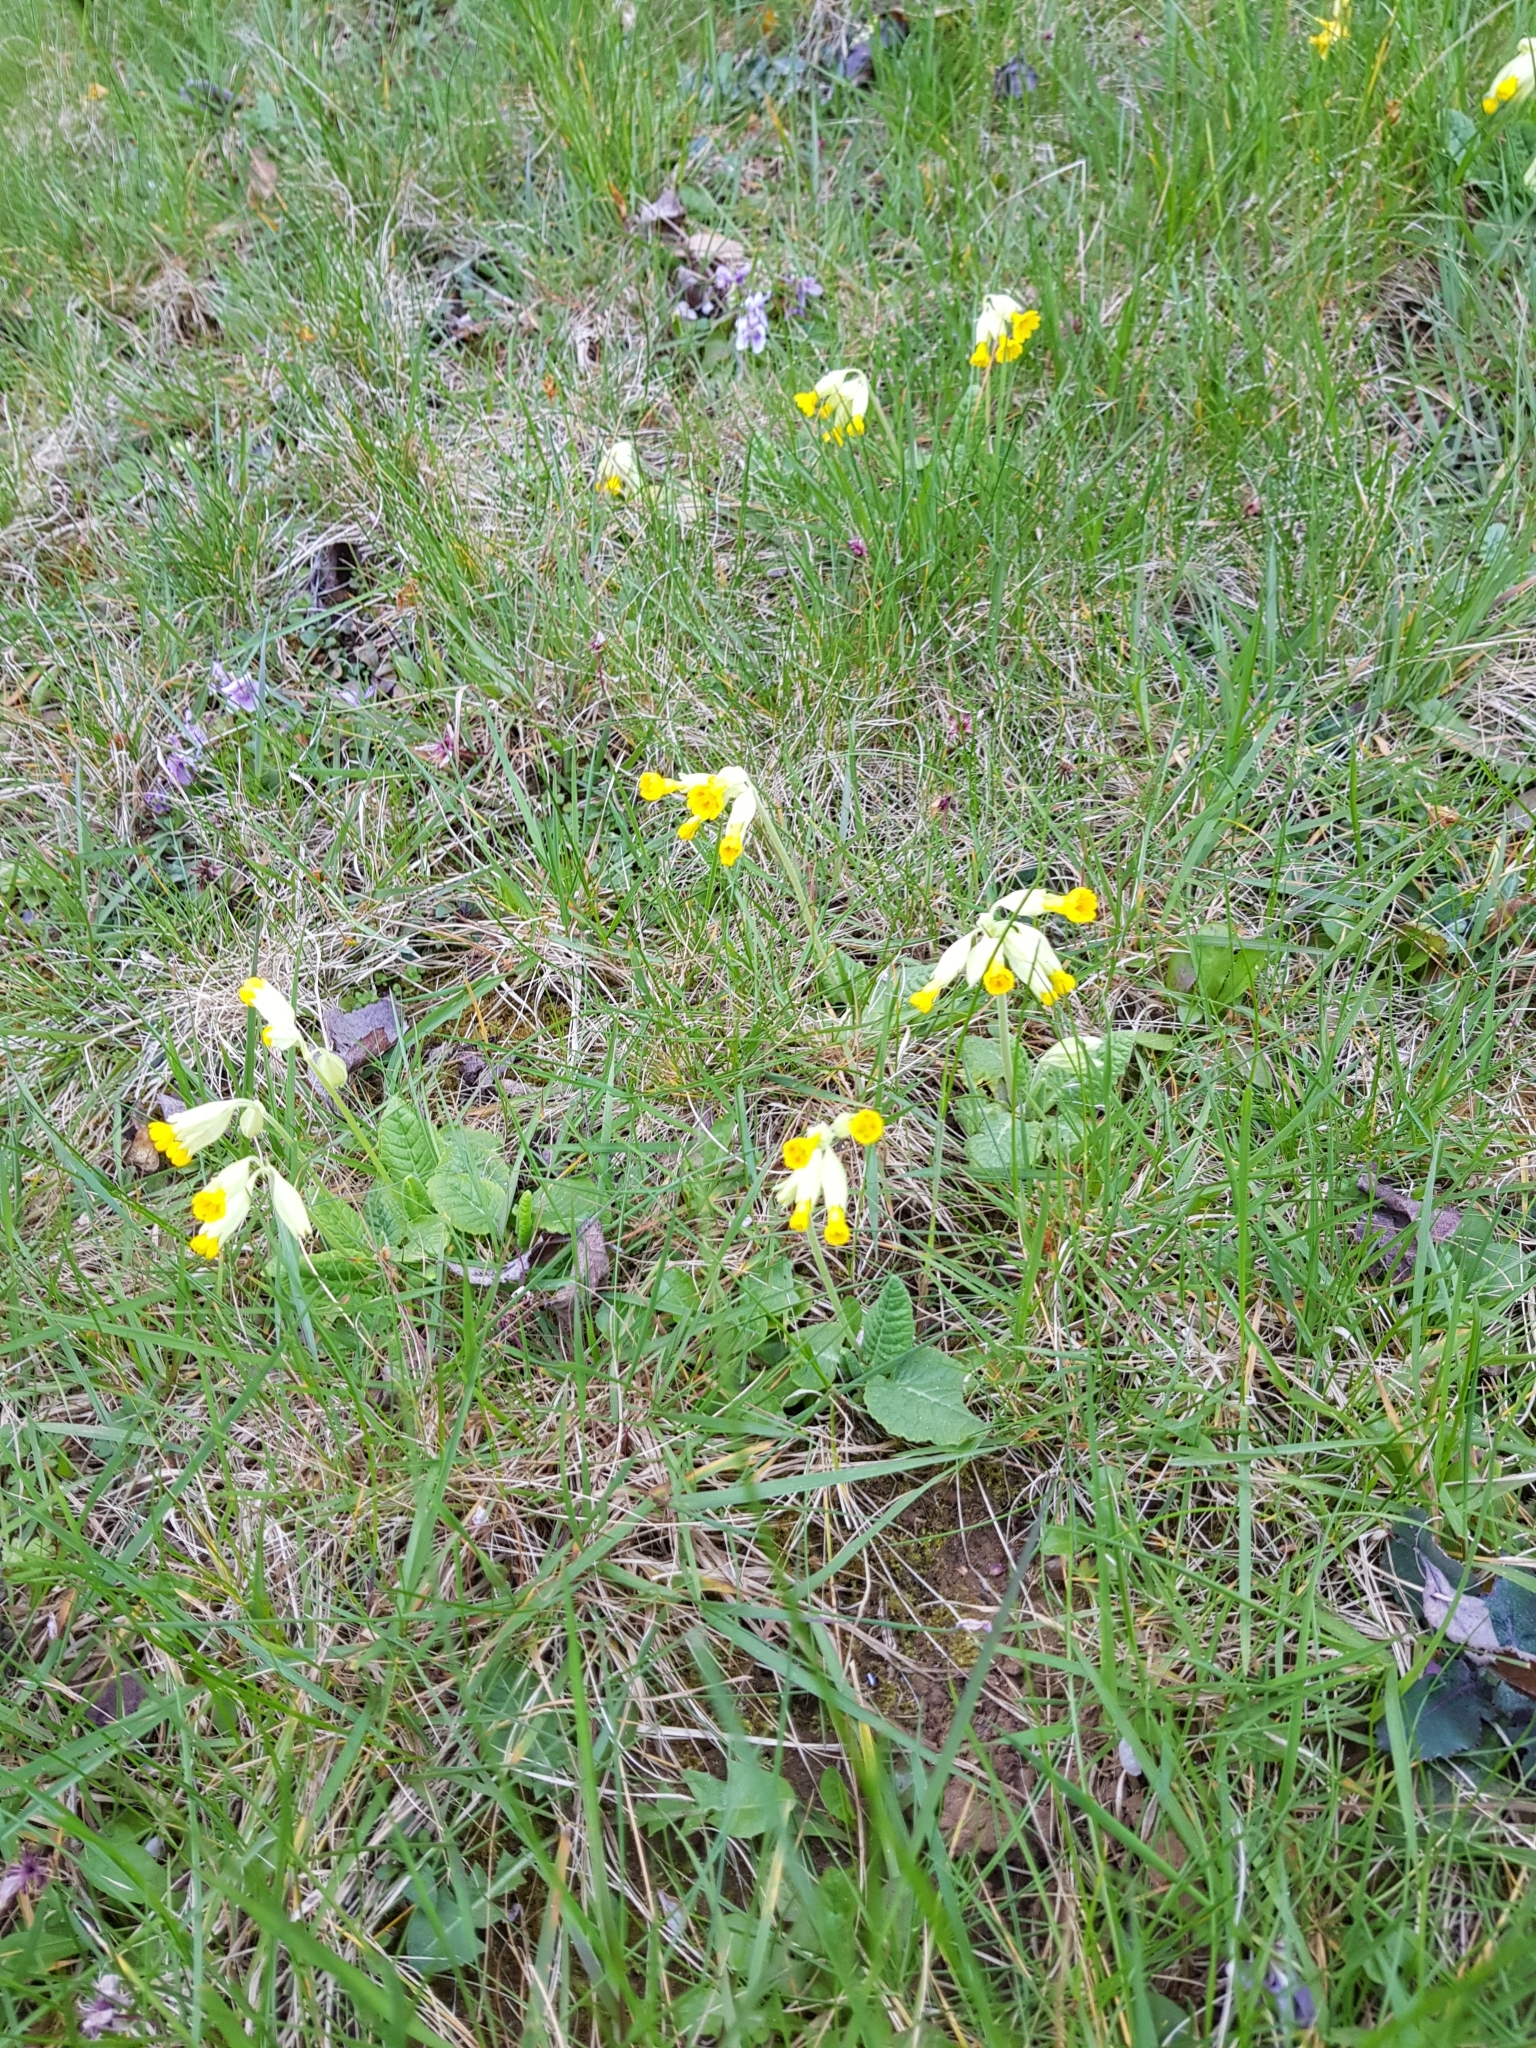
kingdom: Plantae
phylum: Tracheophyta
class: Magnoliopsida
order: Ericales
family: Primulaceae
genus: Primula
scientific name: Primula veris
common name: Cowslip
